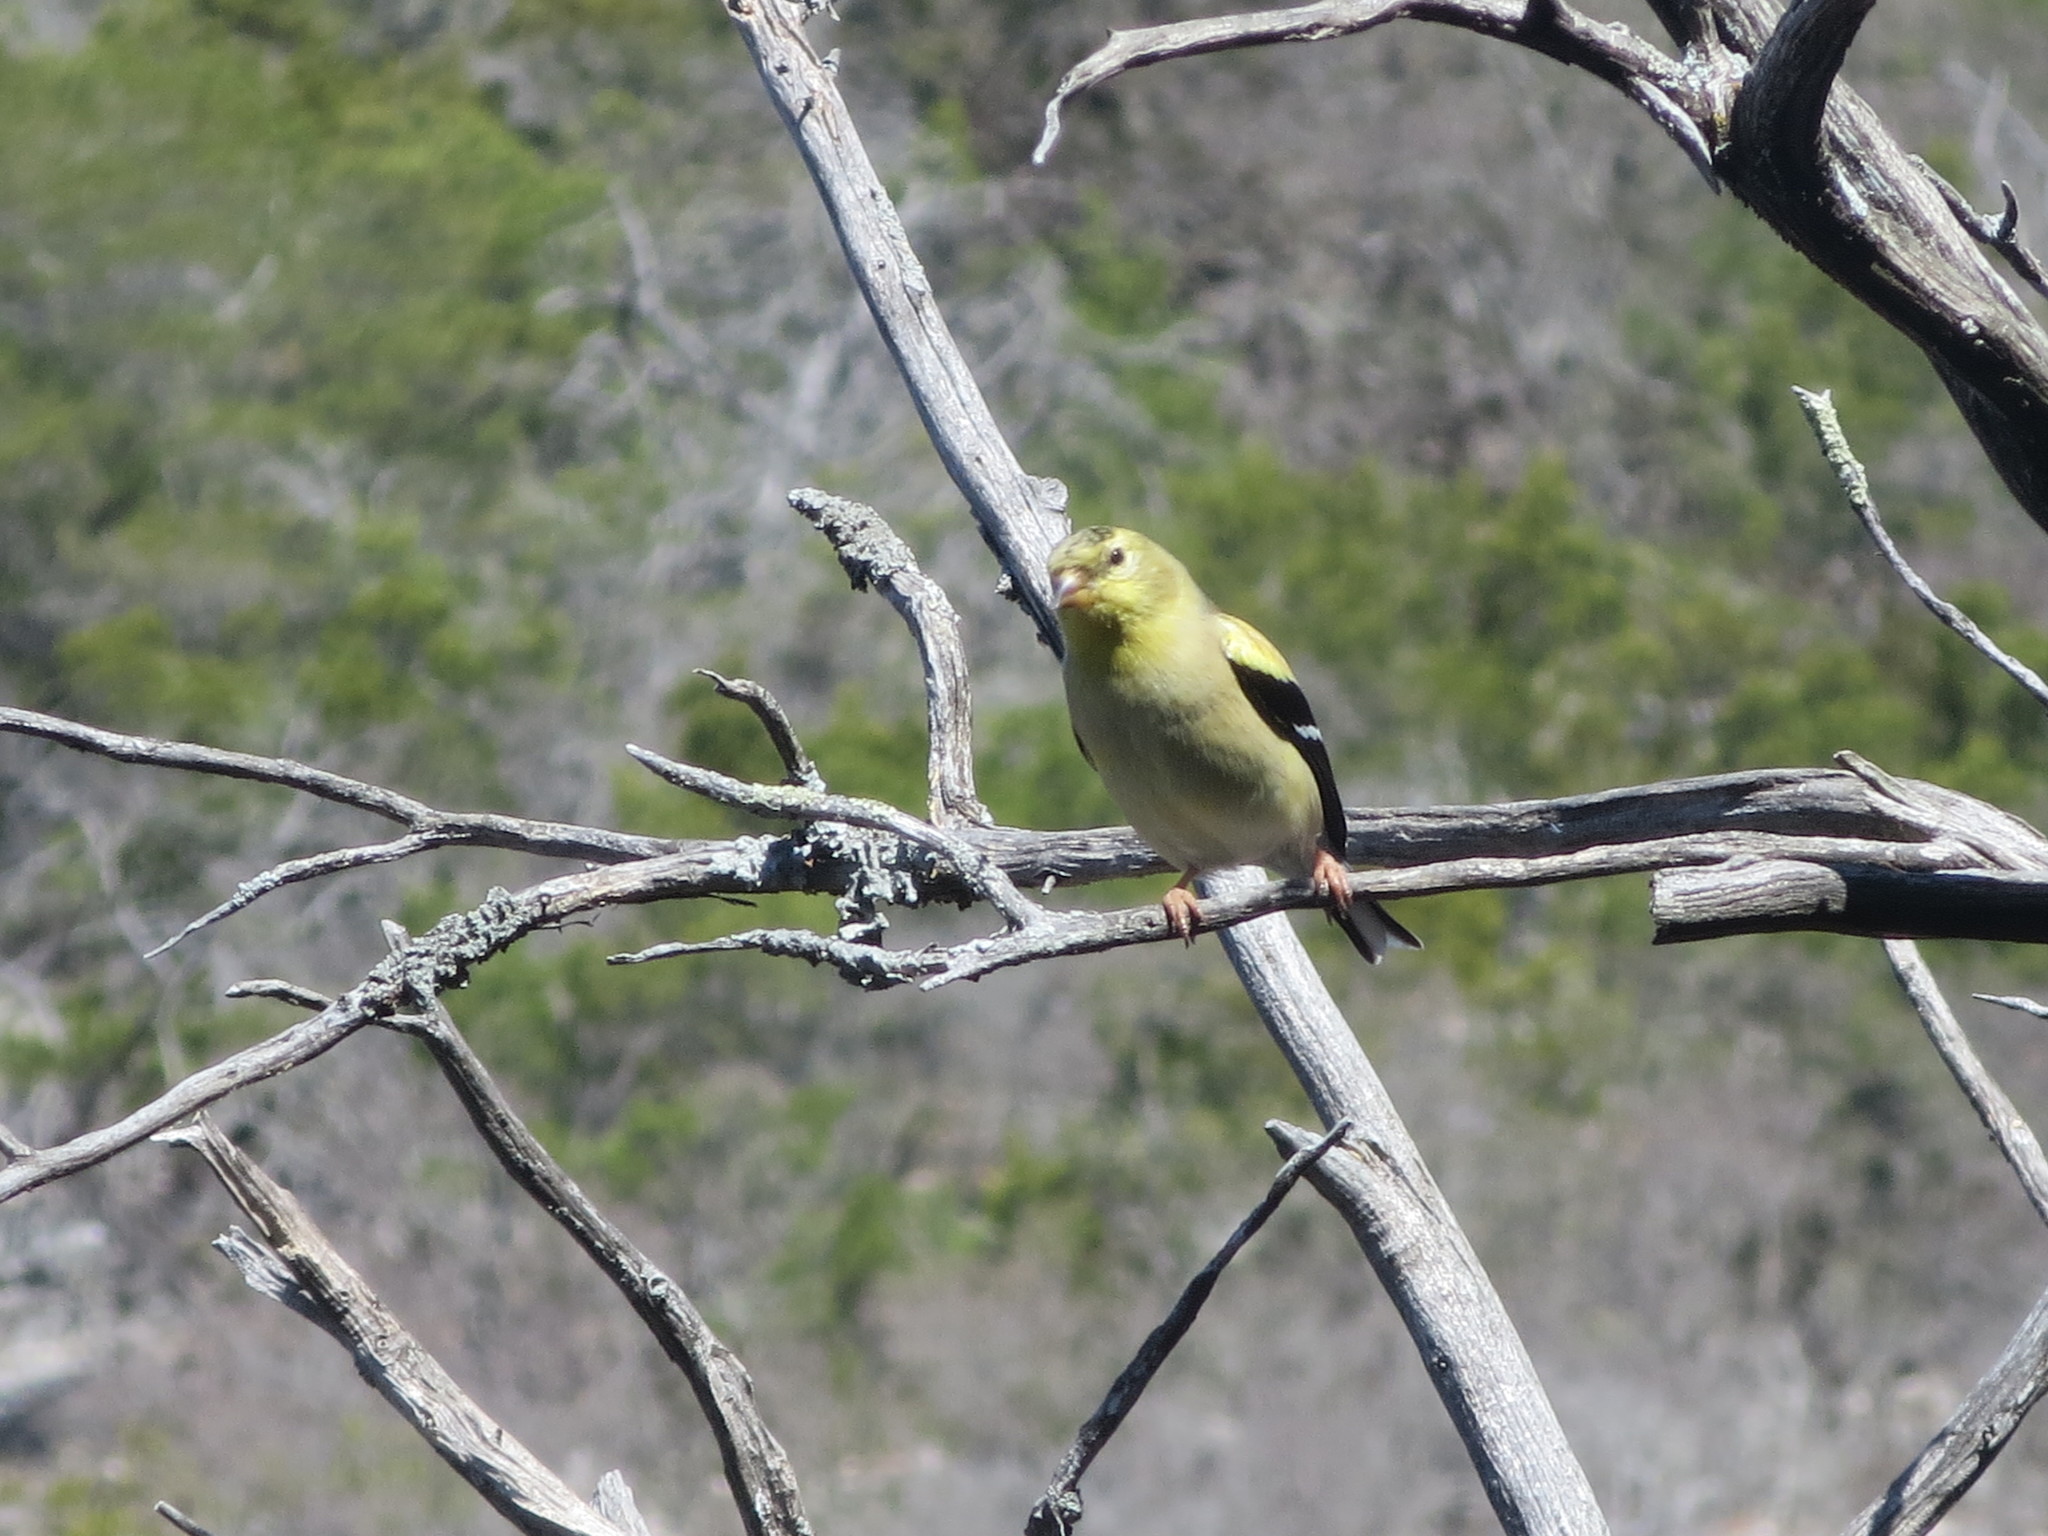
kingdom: Animalia
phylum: Chordata
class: Aves
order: Passeriformes
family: Fringillidae
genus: Spinus
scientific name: Spinus tristis
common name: American goldfinch
